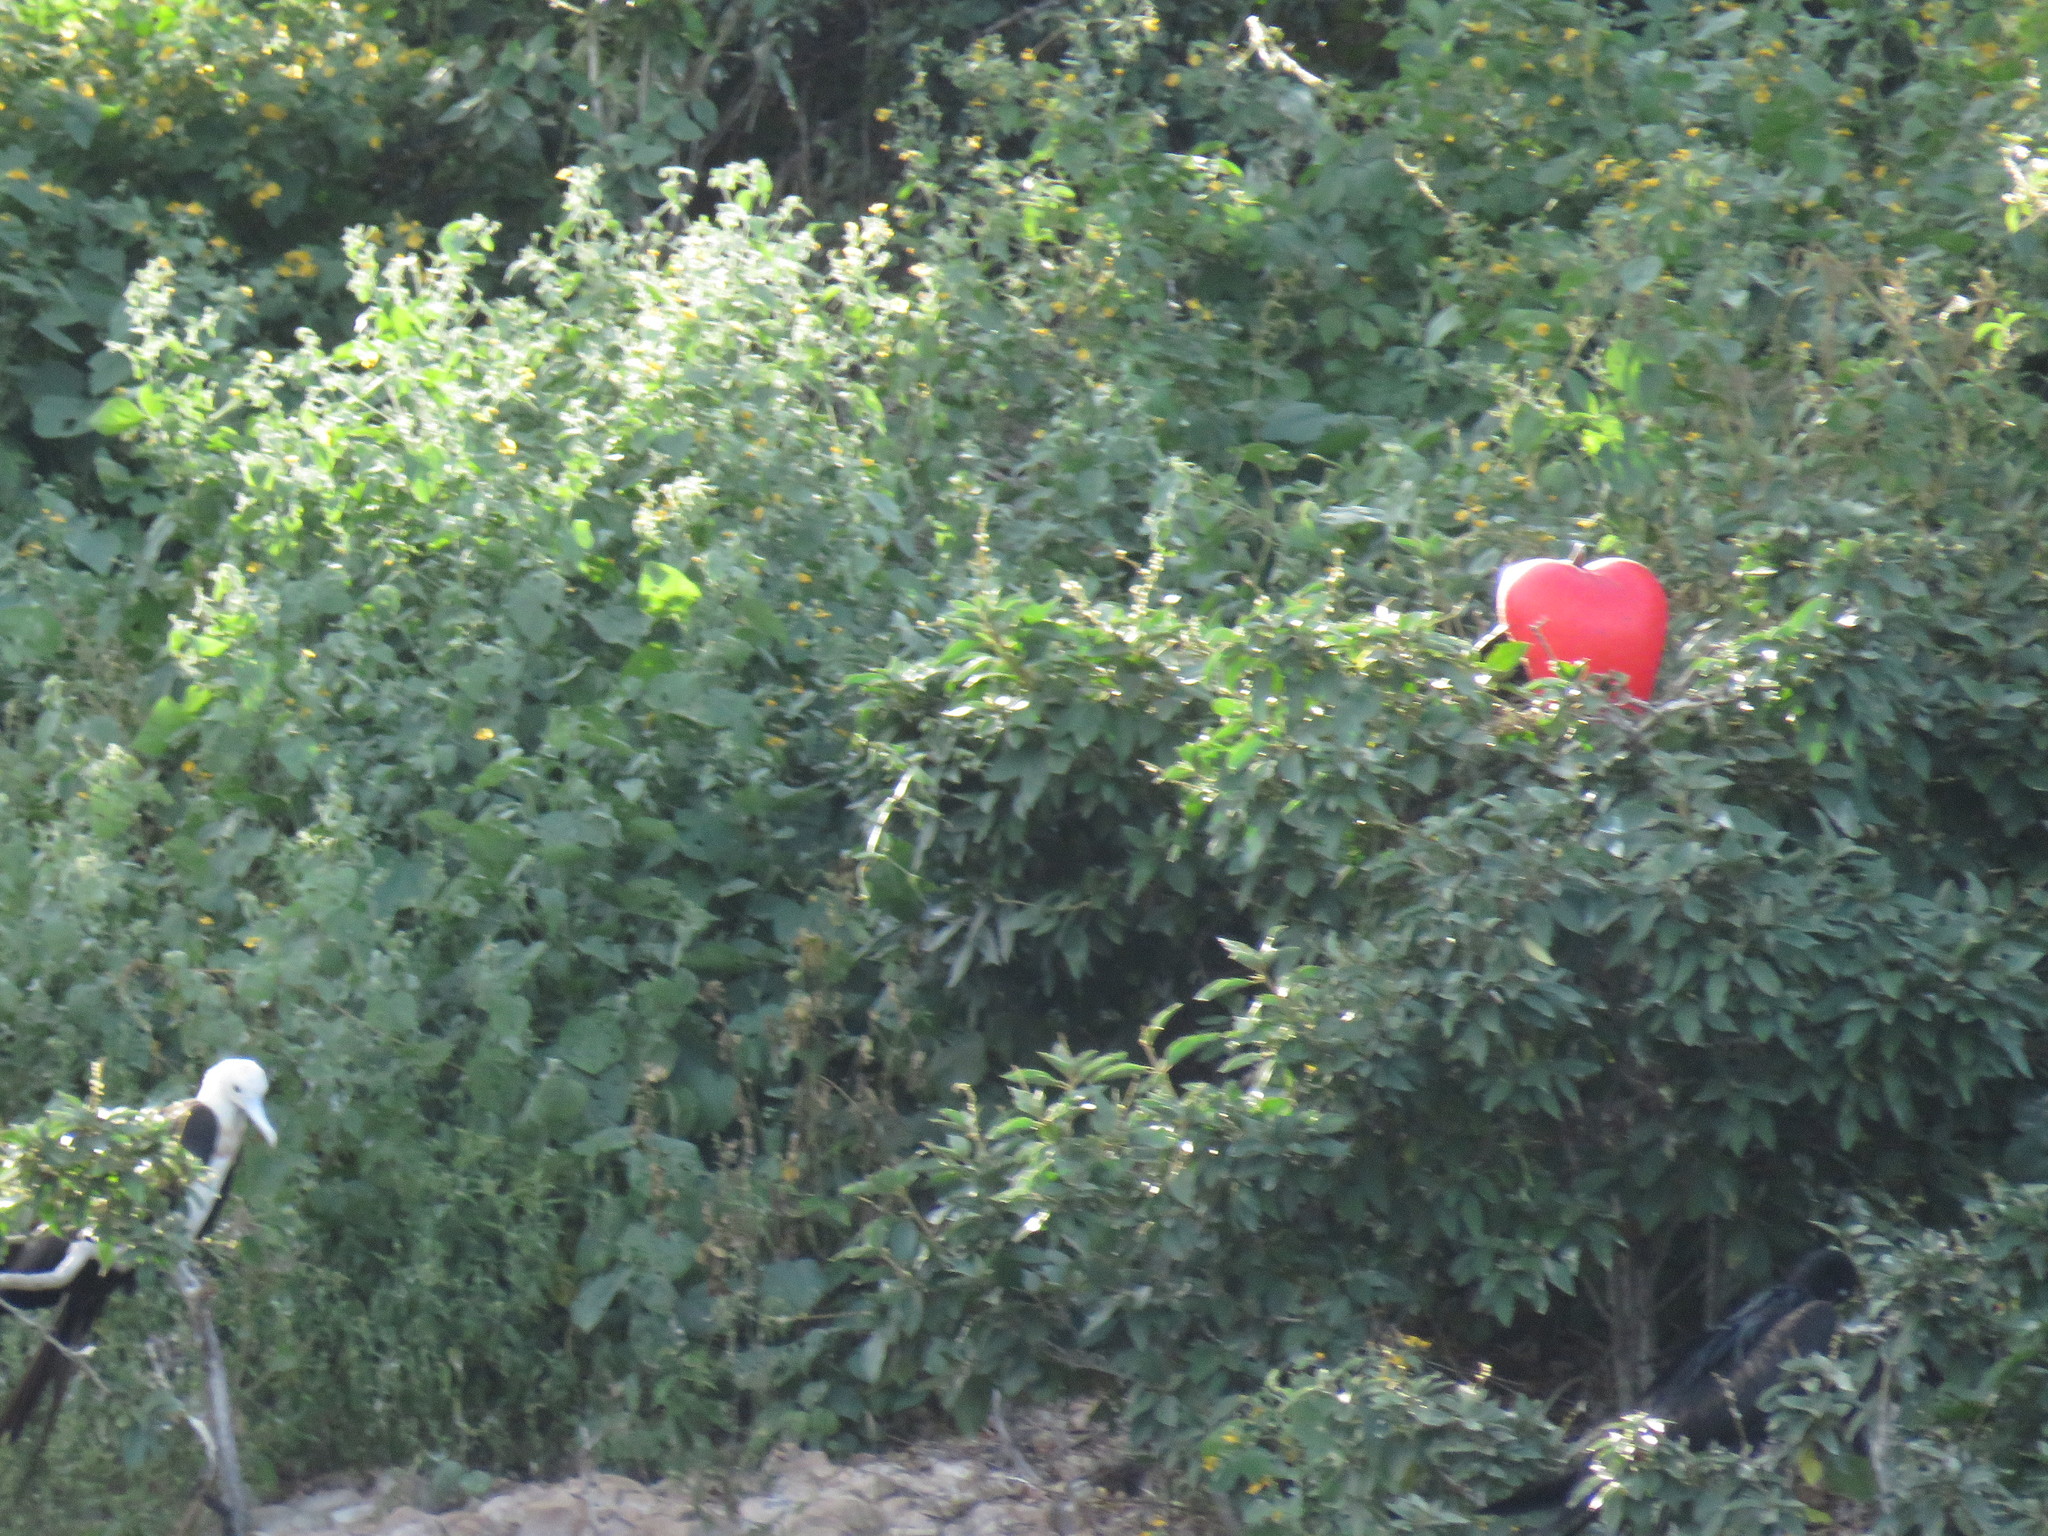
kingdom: Animalia
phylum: Chordata
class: Aves
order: Suliformes
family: Fregatidae
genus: Fregata
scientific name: Fregata magnificens
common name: Magnificent frigatebird
